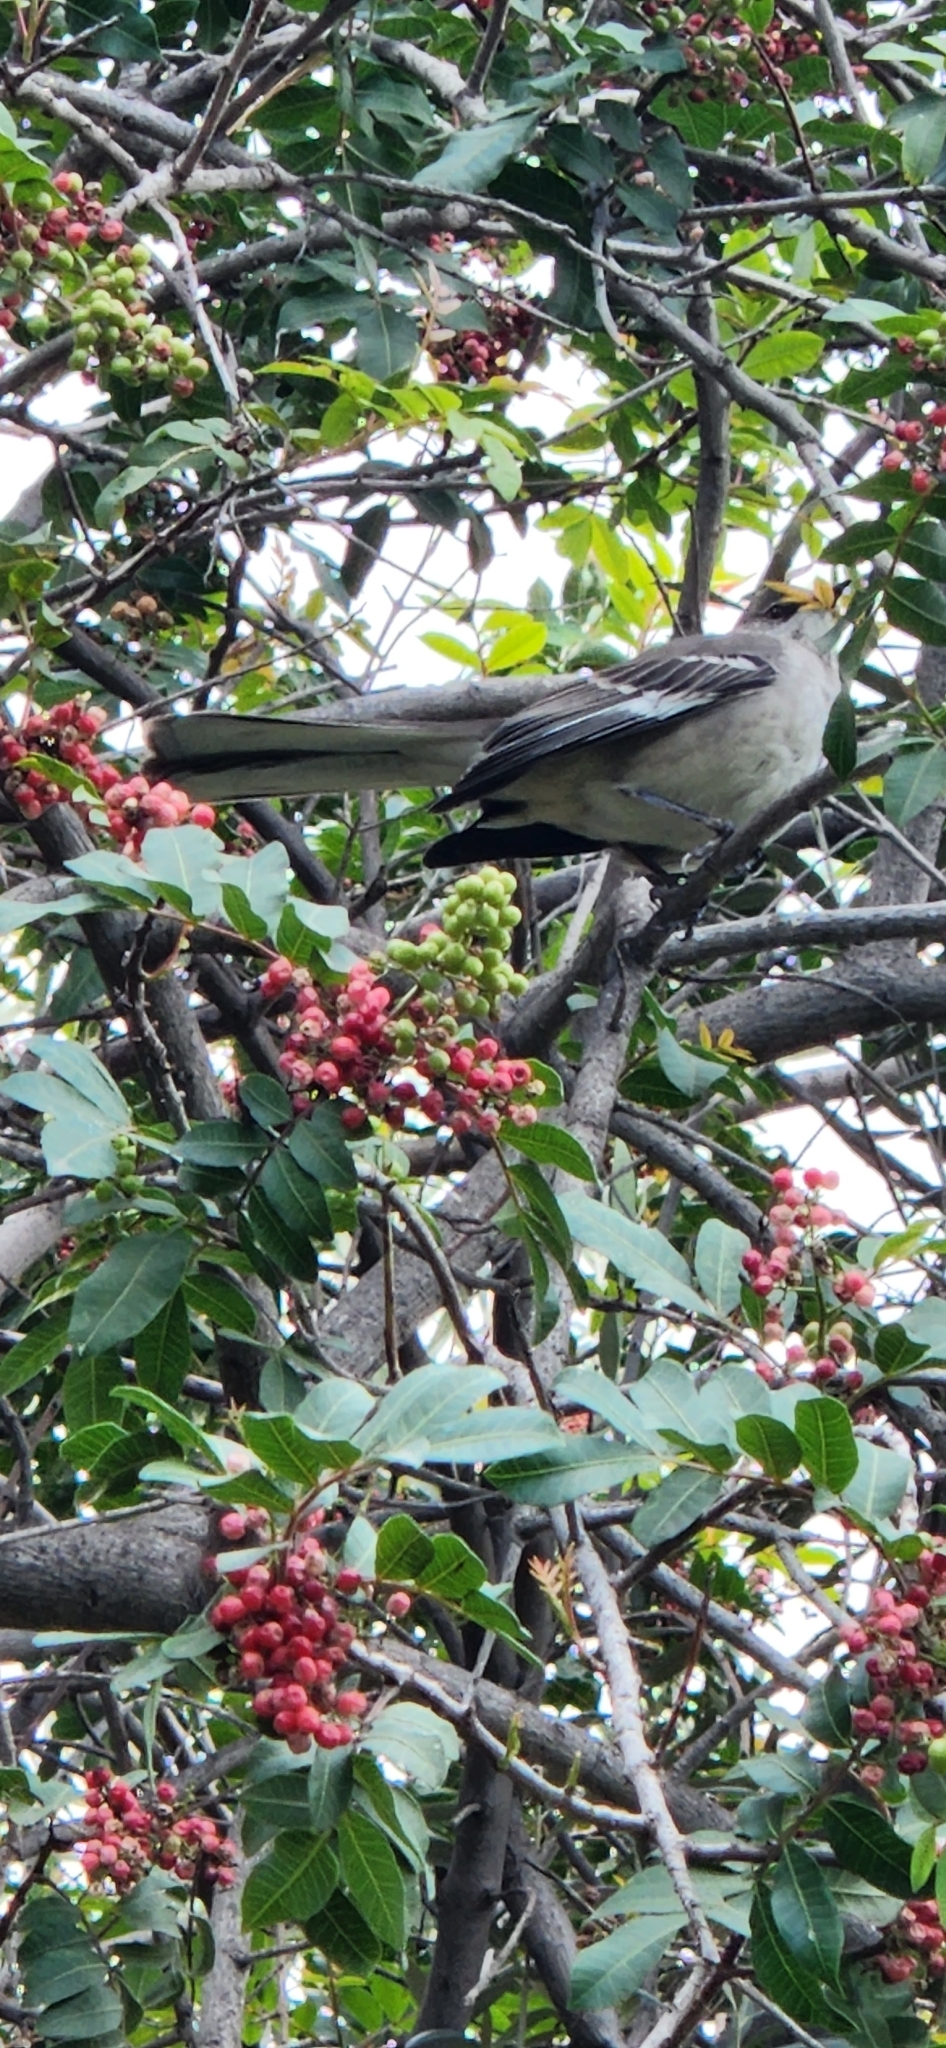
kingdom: Animalia
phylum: Chordata
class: Aves
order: Passeriformes
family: Mimidae
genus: Mimus
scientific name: Mimus polyglottos
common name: Northern mockingbird
